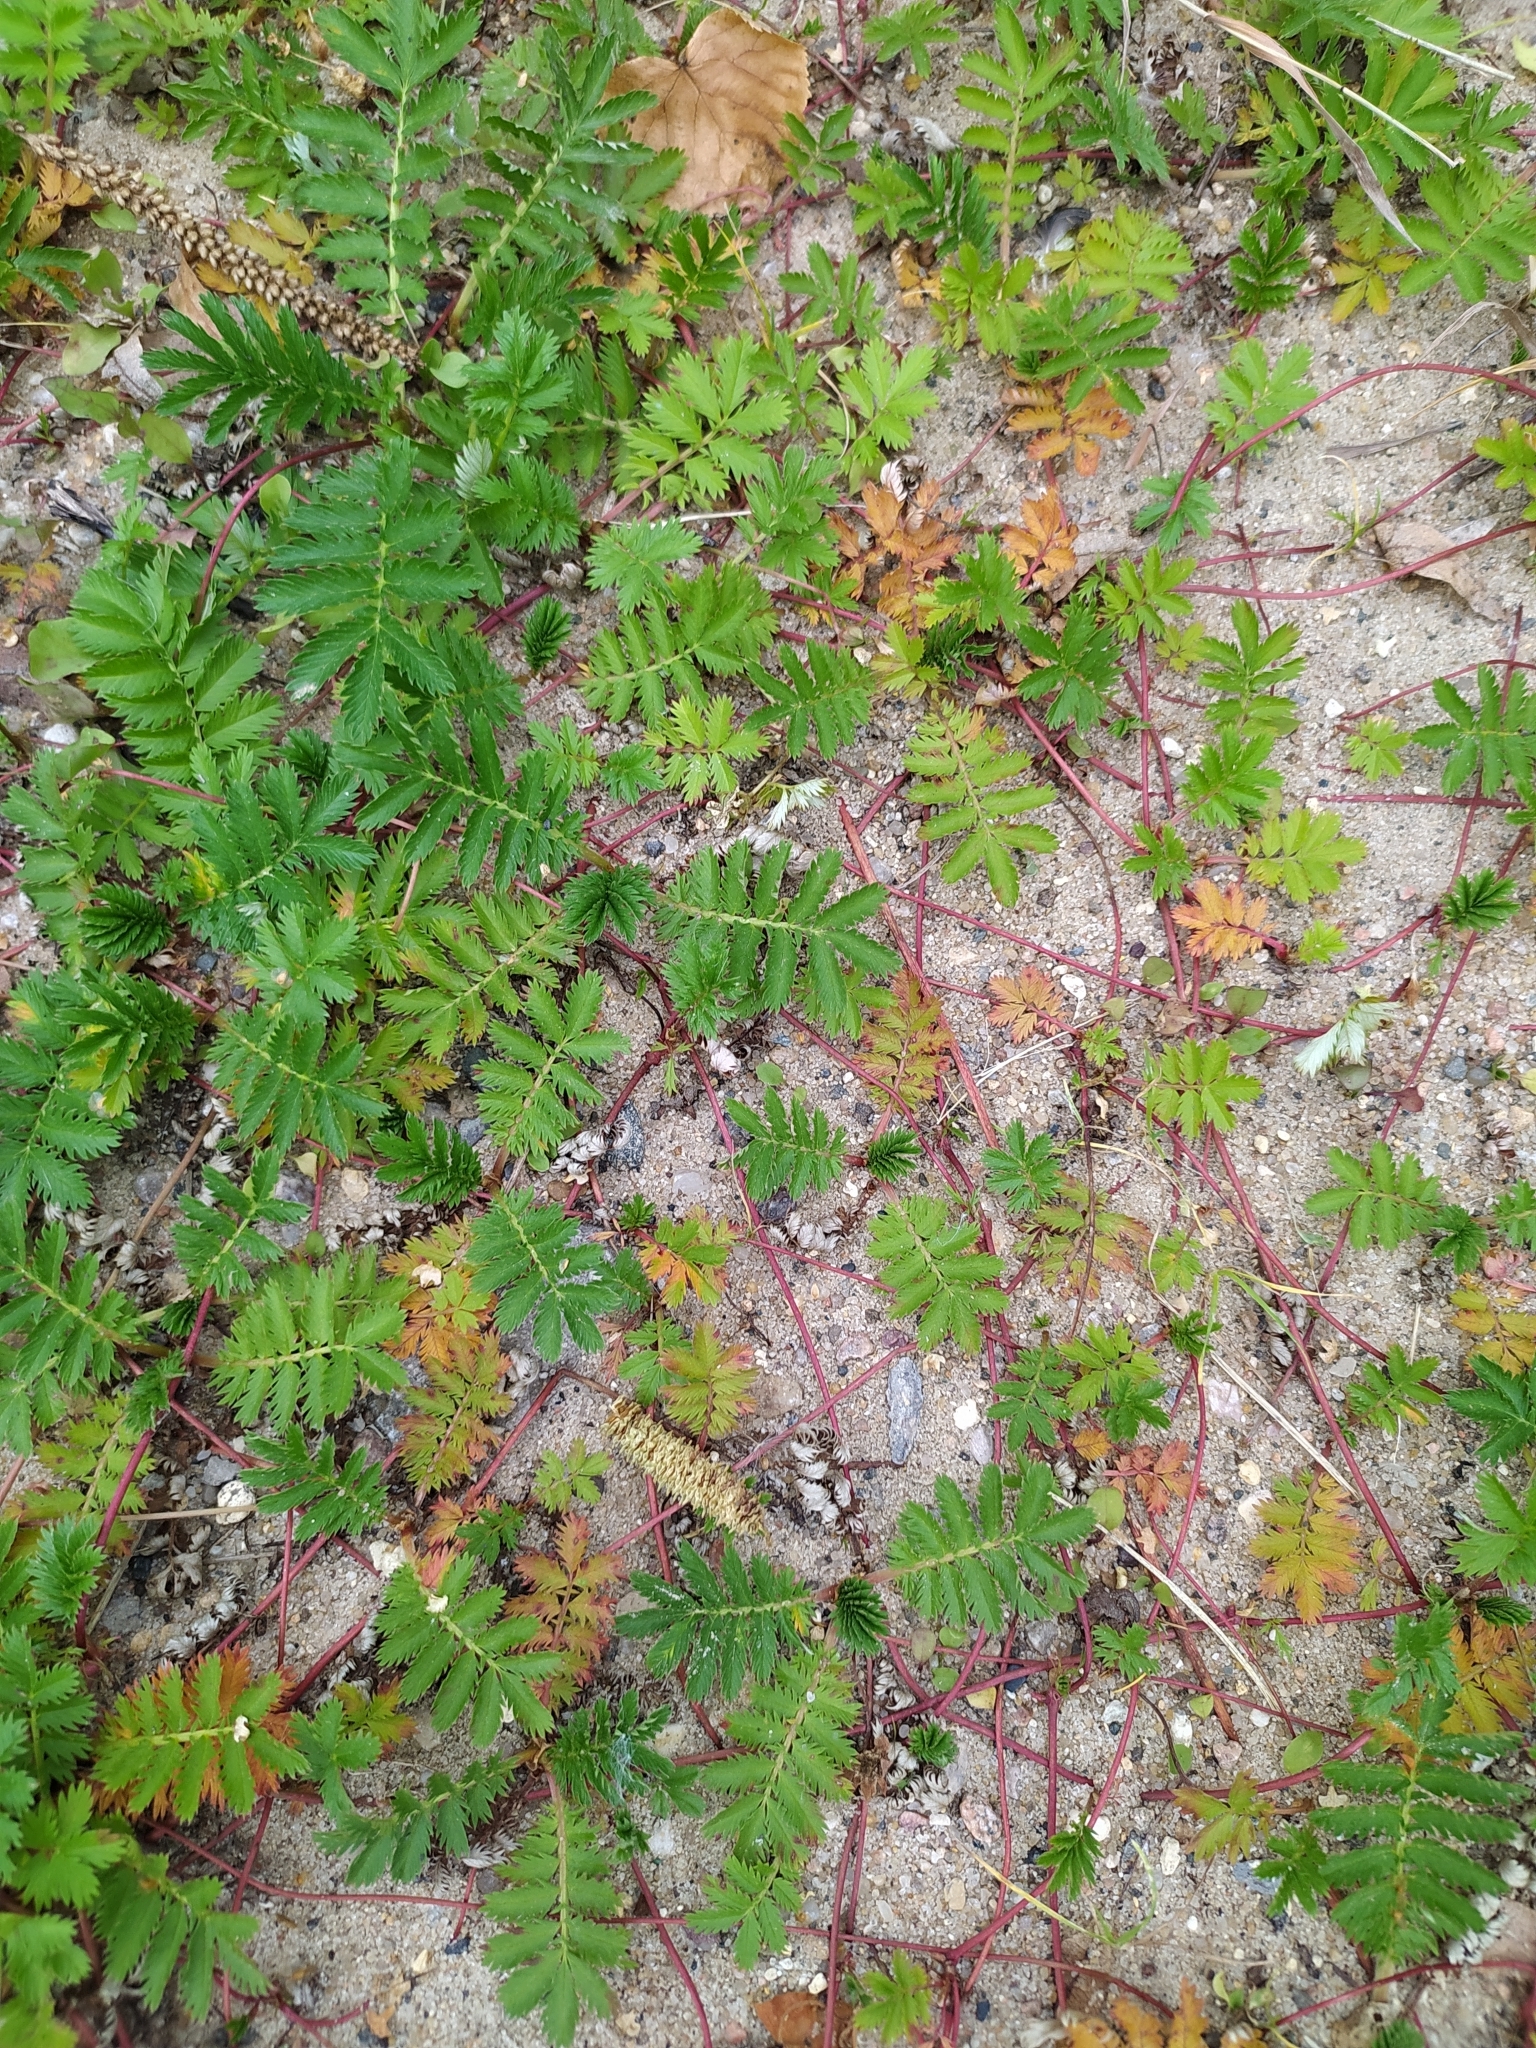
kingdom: Plantae
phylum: Tracheophyta
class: Magnoliopsida
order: Rosales
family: Rosaceae
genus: Argentina
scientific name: Argentina anserina
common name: Common silverweed
